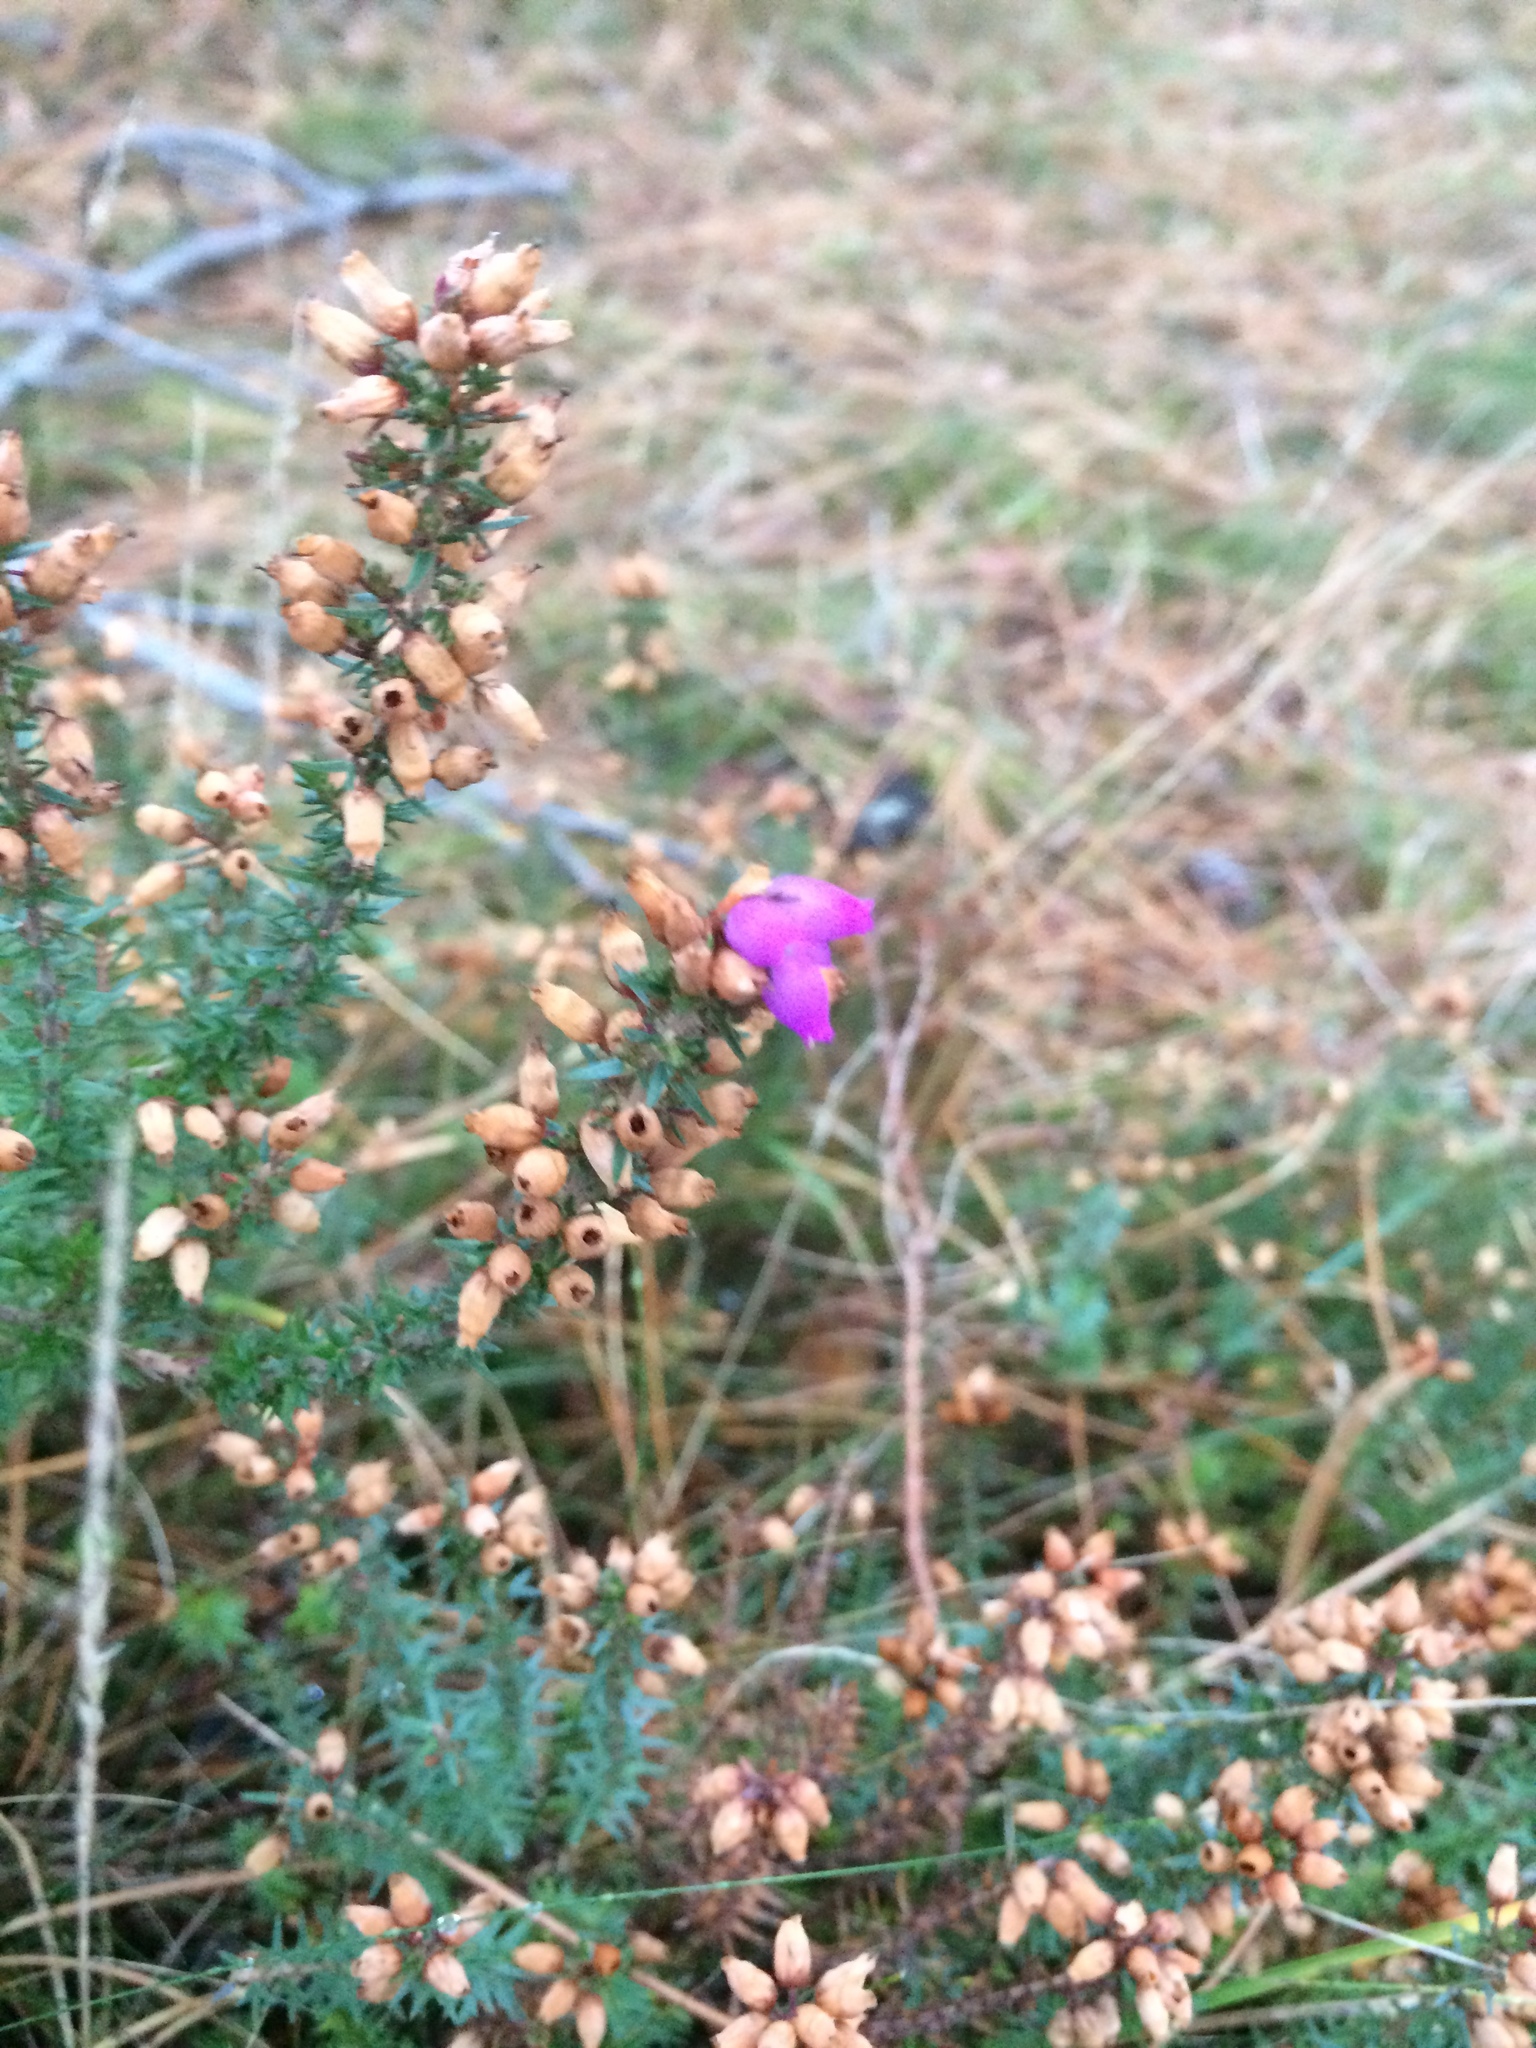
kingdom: Plantae
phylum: Tracheophyta
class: Magnoliopsida
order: Ericales
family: Ericaceae
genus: Erica
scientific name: Erica cinerea
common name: Bell heather
